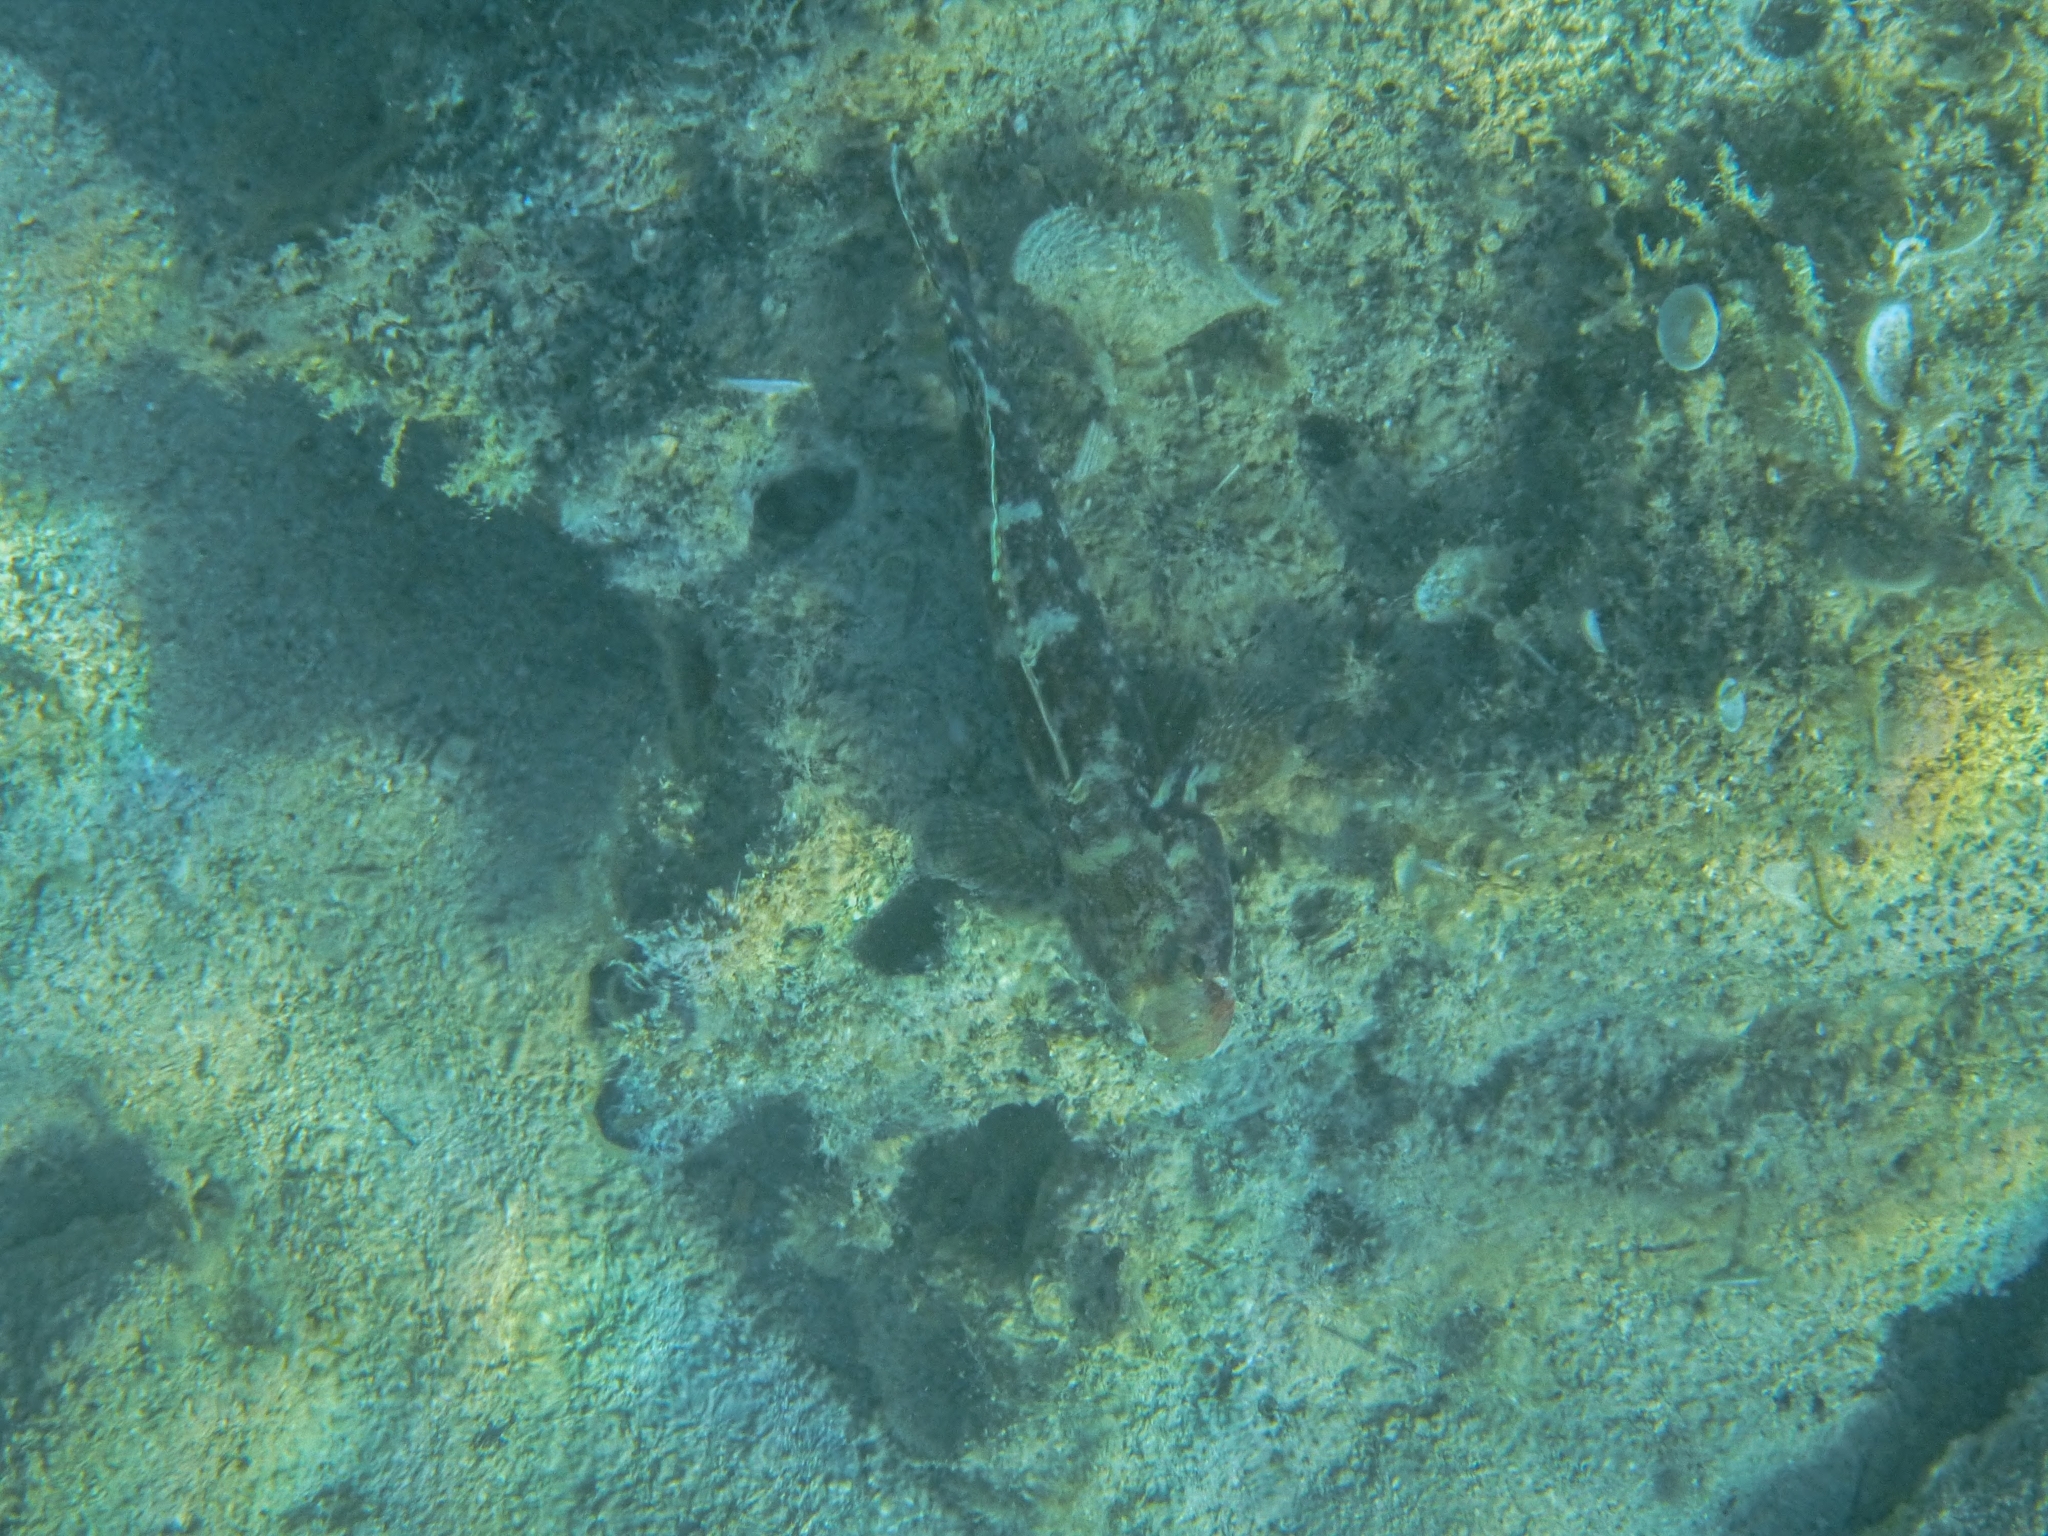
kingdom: Animalia
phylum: Chordata
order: Perciformes
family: Gobiidae
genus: Gobius
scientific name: Gobius cruentatus
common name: Red-mouthed goby
